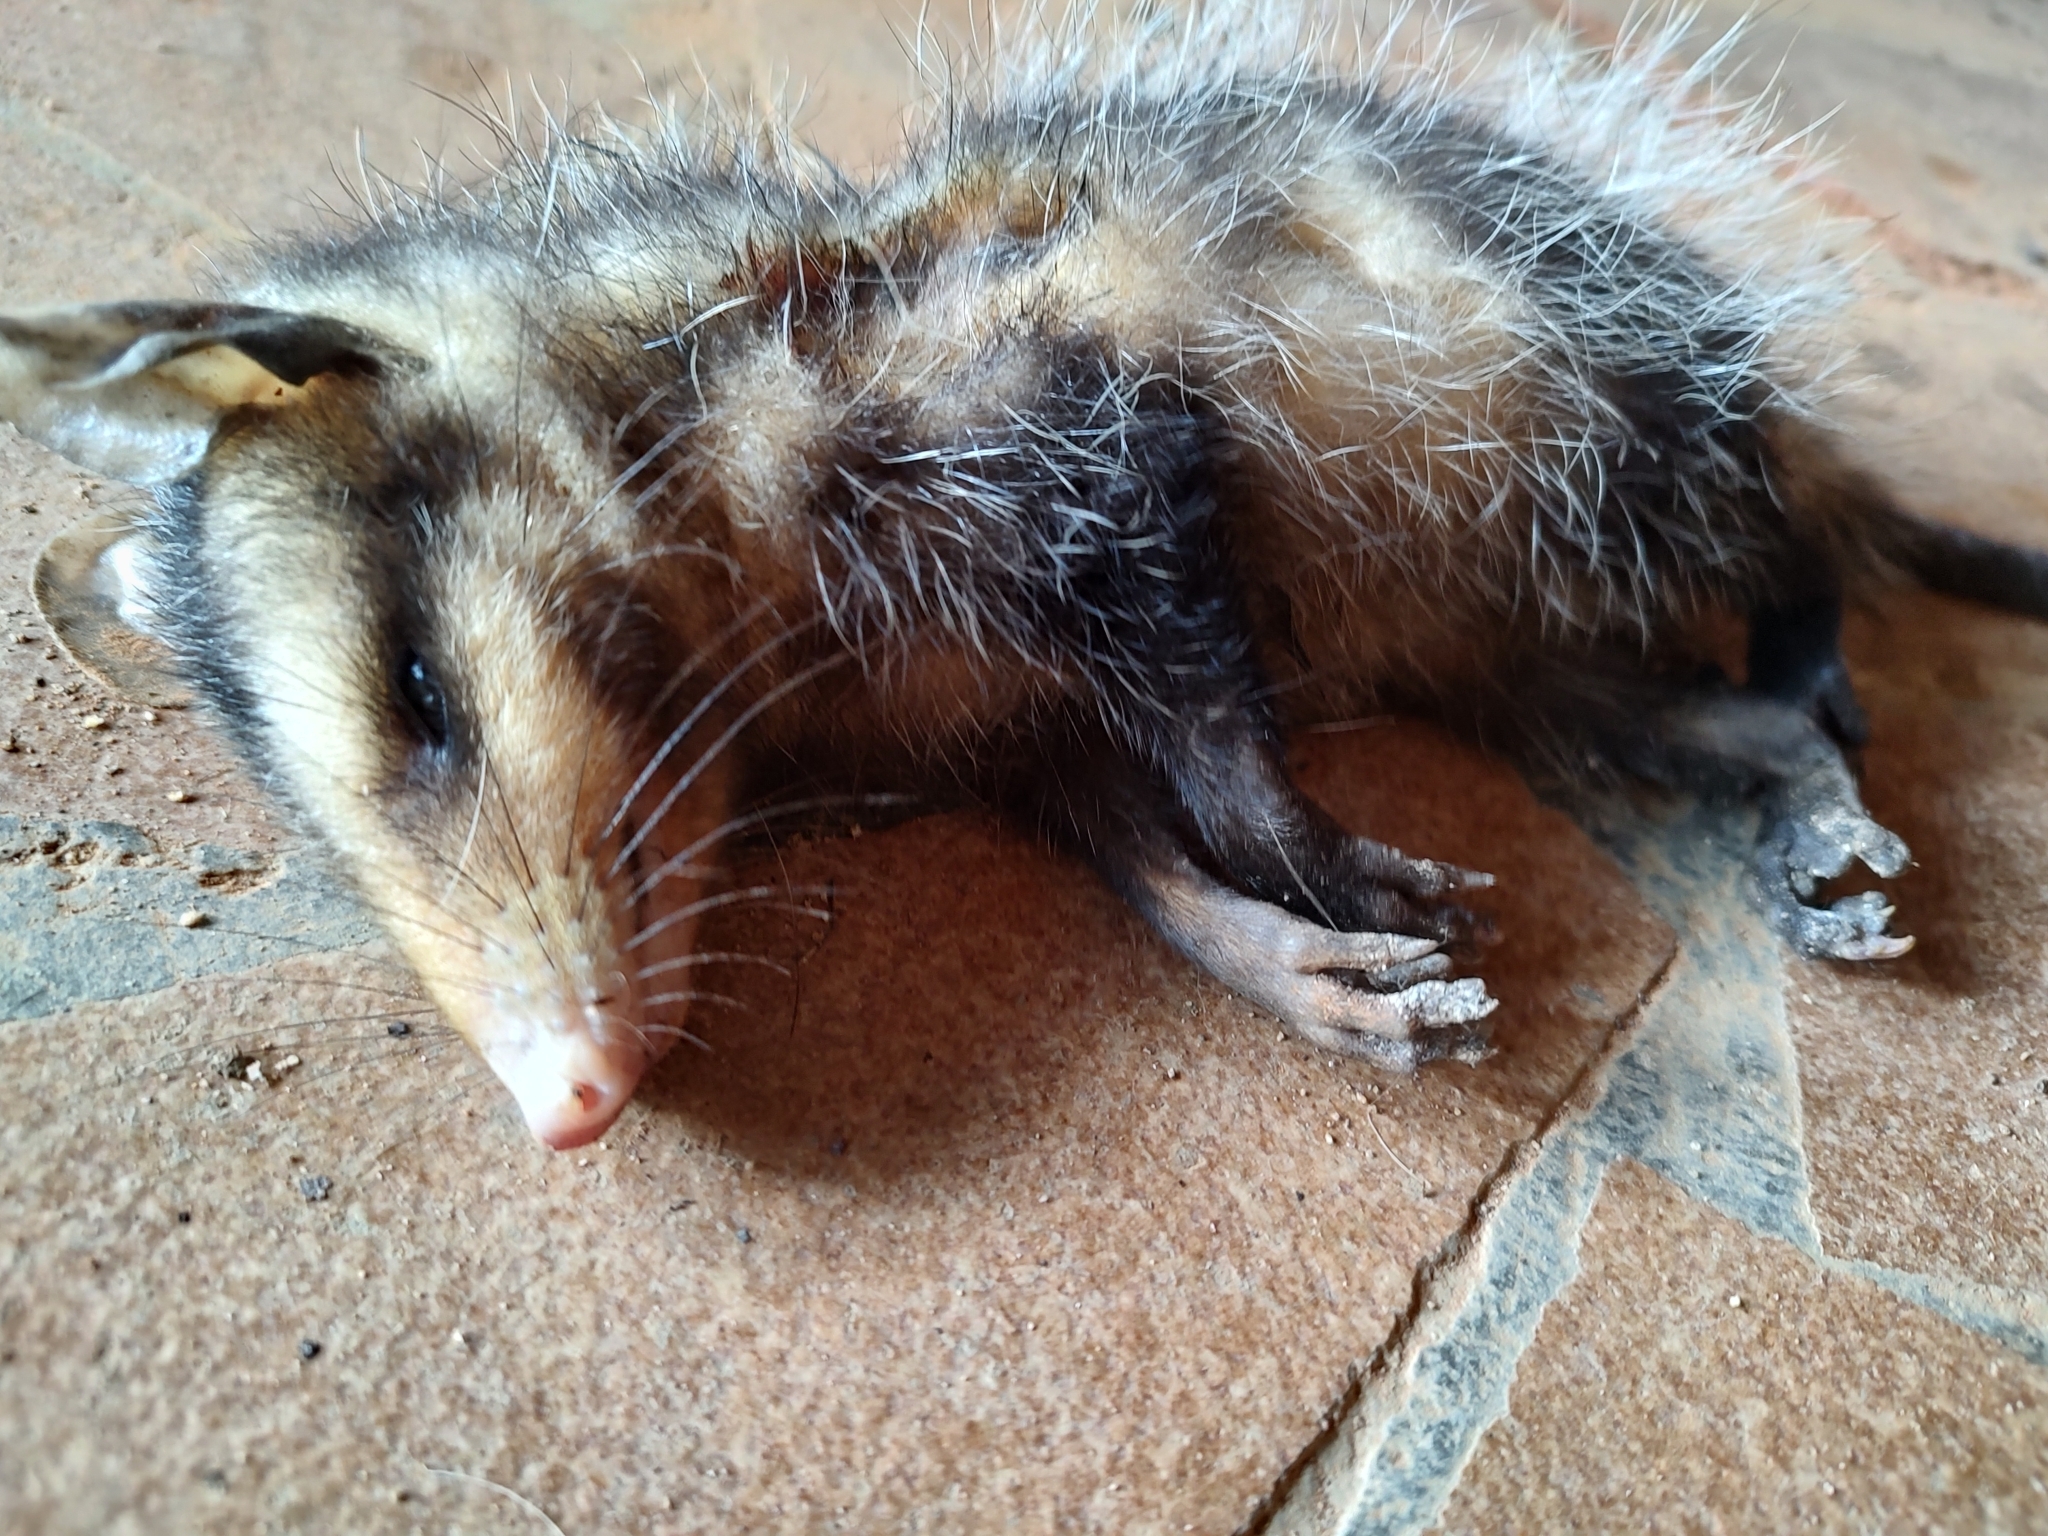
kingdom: Animalia
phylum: Chordata
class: Mammalia
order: Didelphimorphia
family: Didelphidae
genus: Didelphis
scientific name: Didelphis albiventris
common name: White-eared opossum
